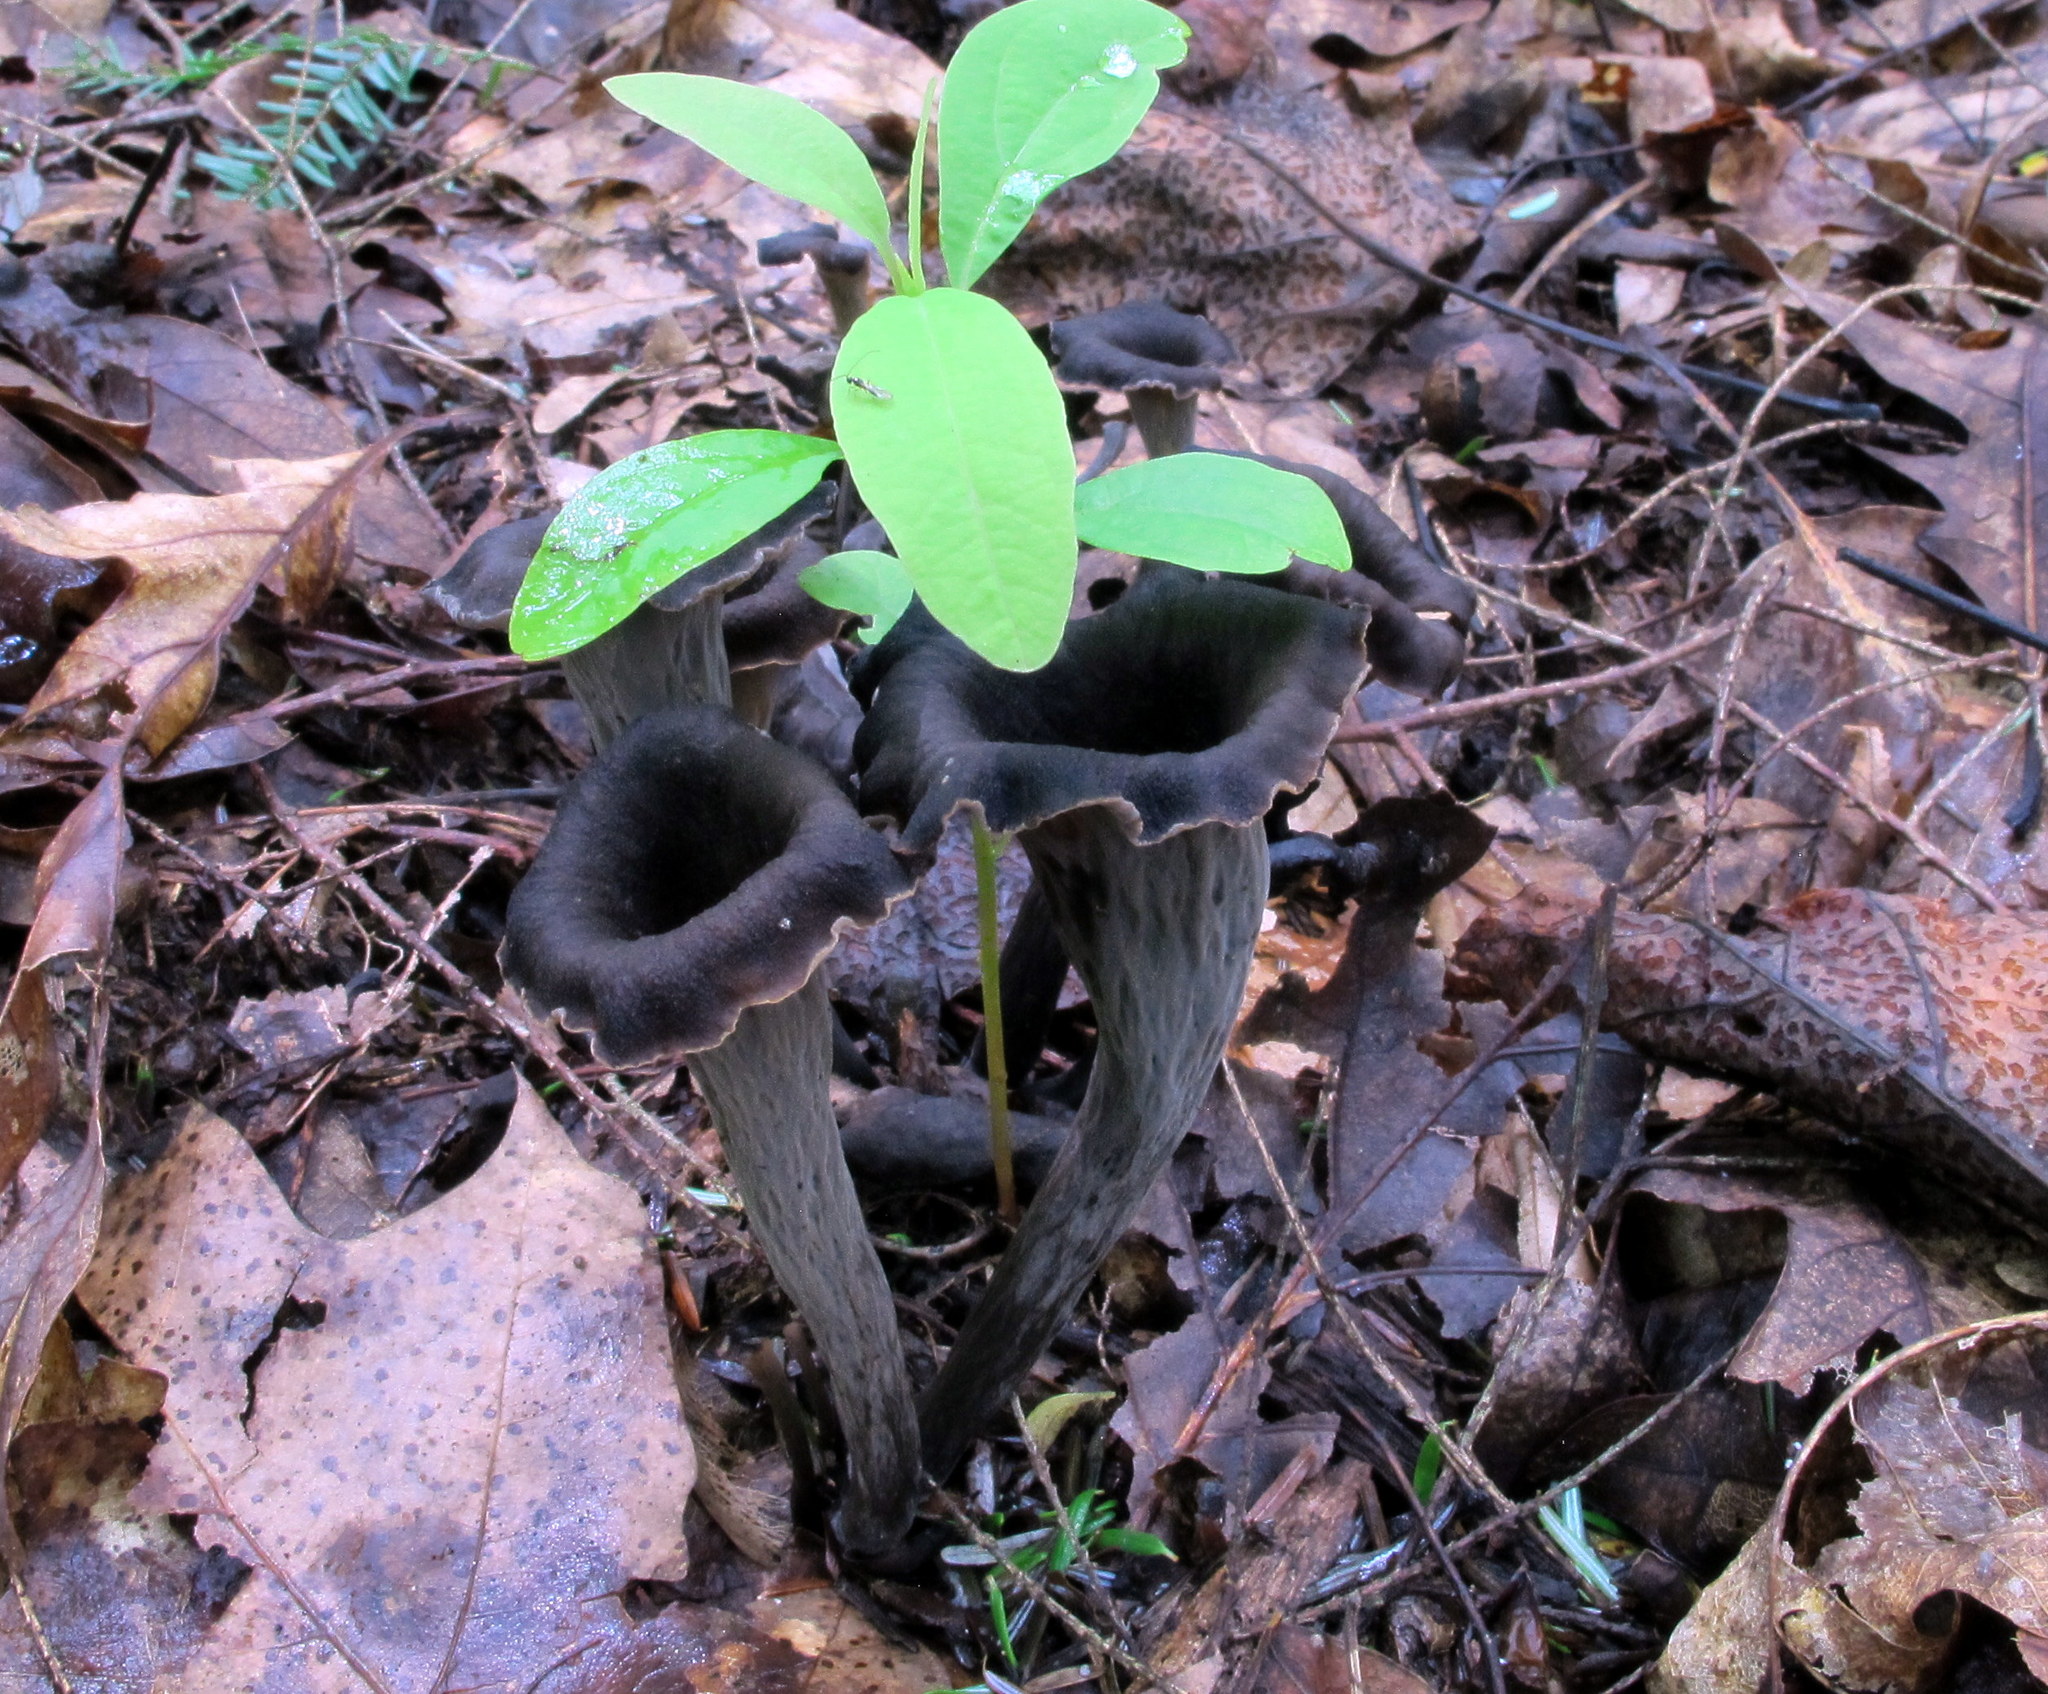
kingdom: Fungi
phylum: Basidiomycota
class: Agaricomycetes
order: Cantharellales
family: Hydnaceae
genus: Craterellus
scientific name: Craterellus cornucopioides
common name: Horn of plenty
